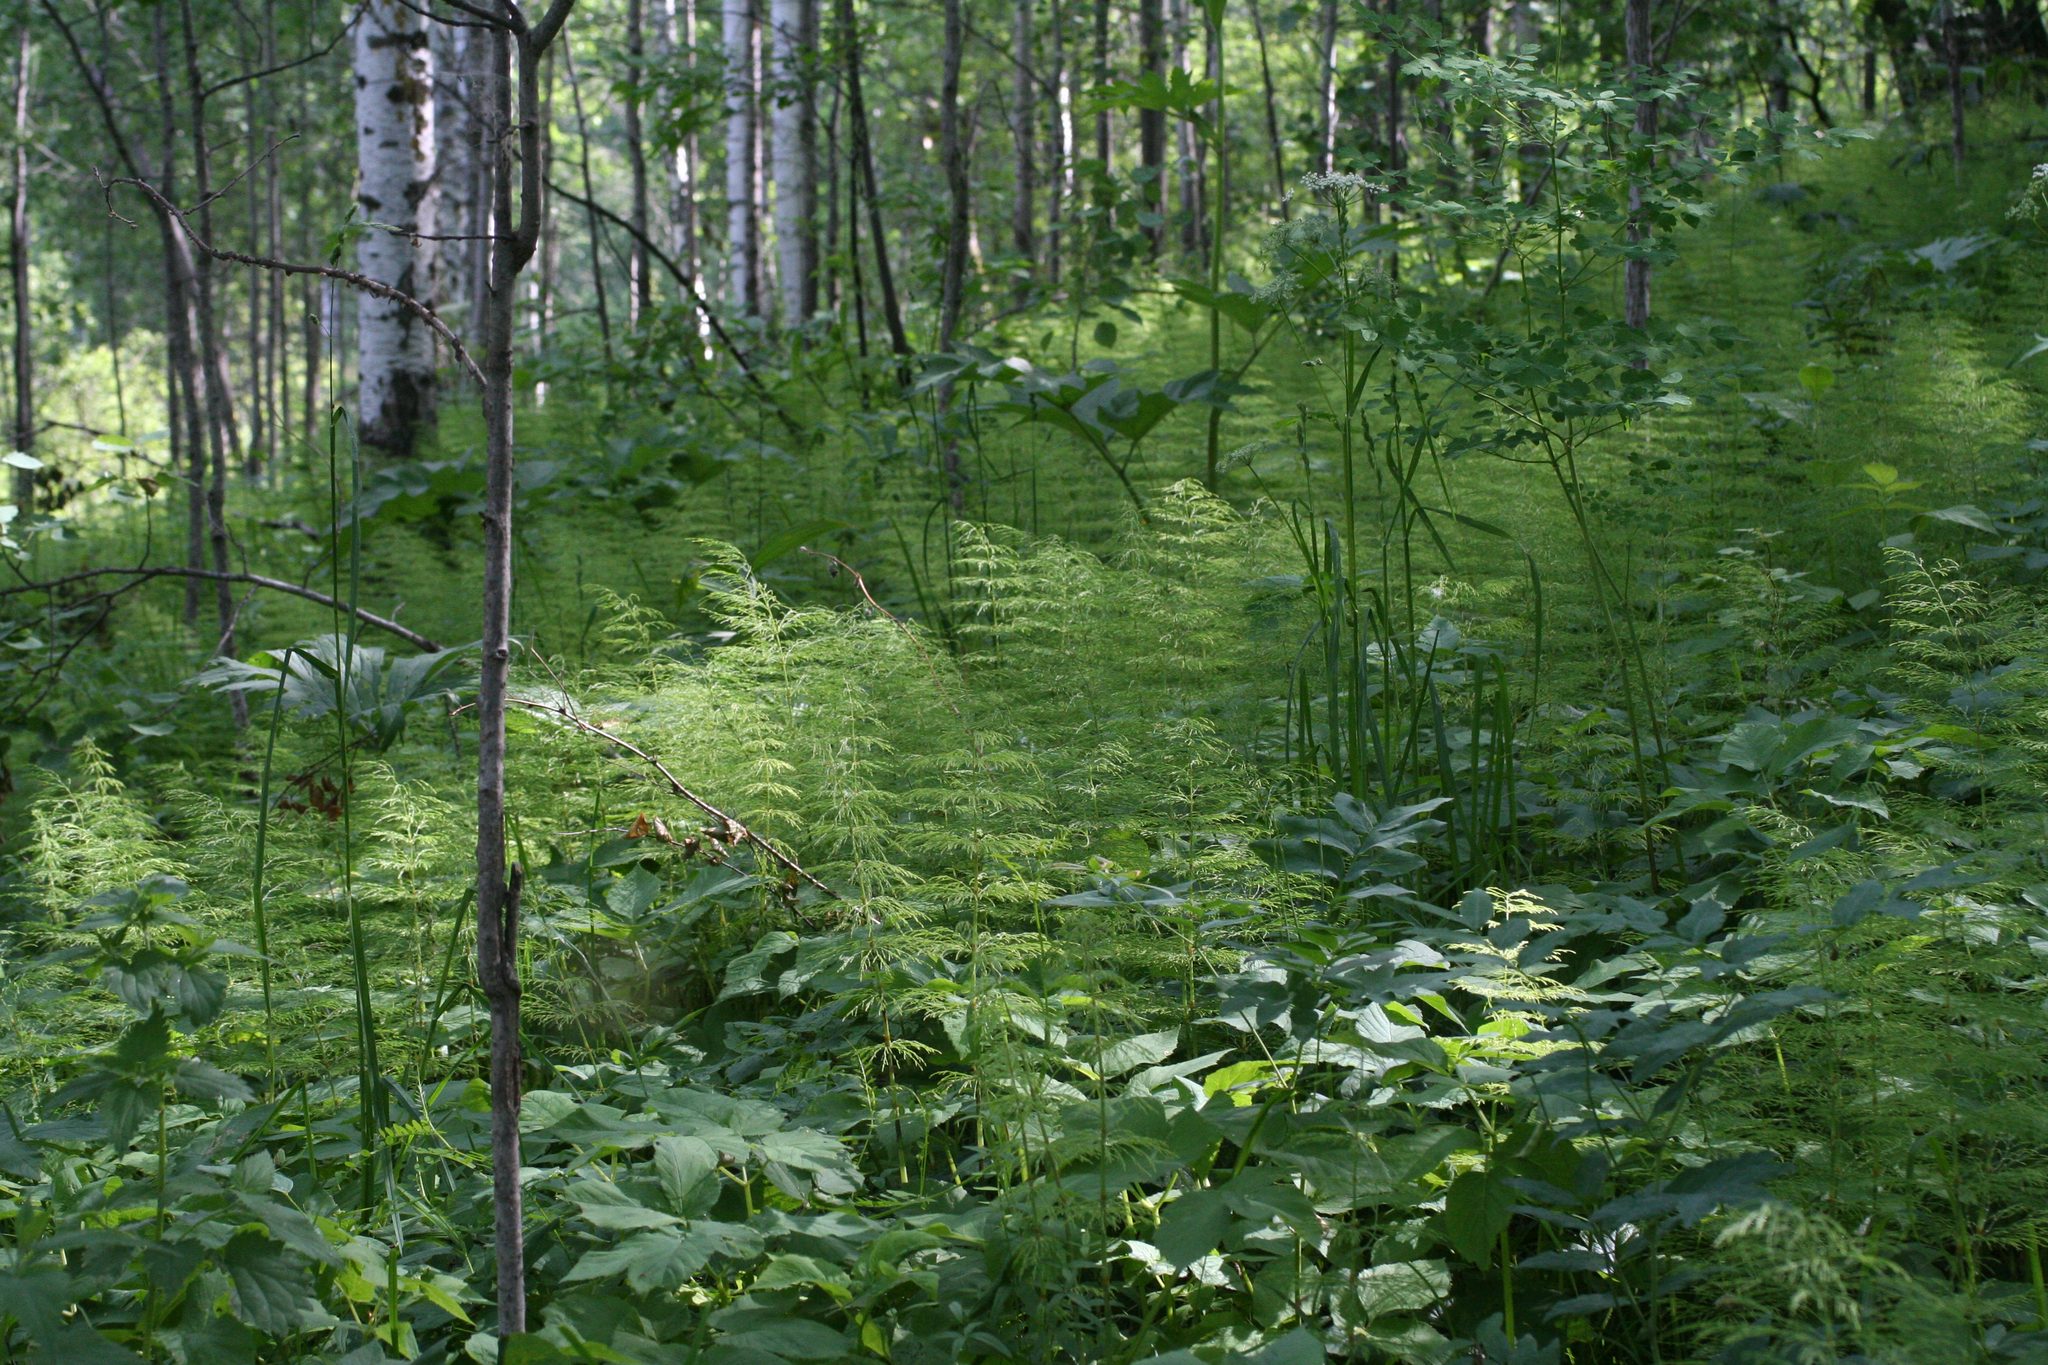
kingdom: Plantae
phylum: Tracheophyta
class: Polypodiopsida
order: Equisetales
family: Equisetaceae
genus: Equisetum
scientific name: Equisetum sylvaticum
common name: Wood horsetail
